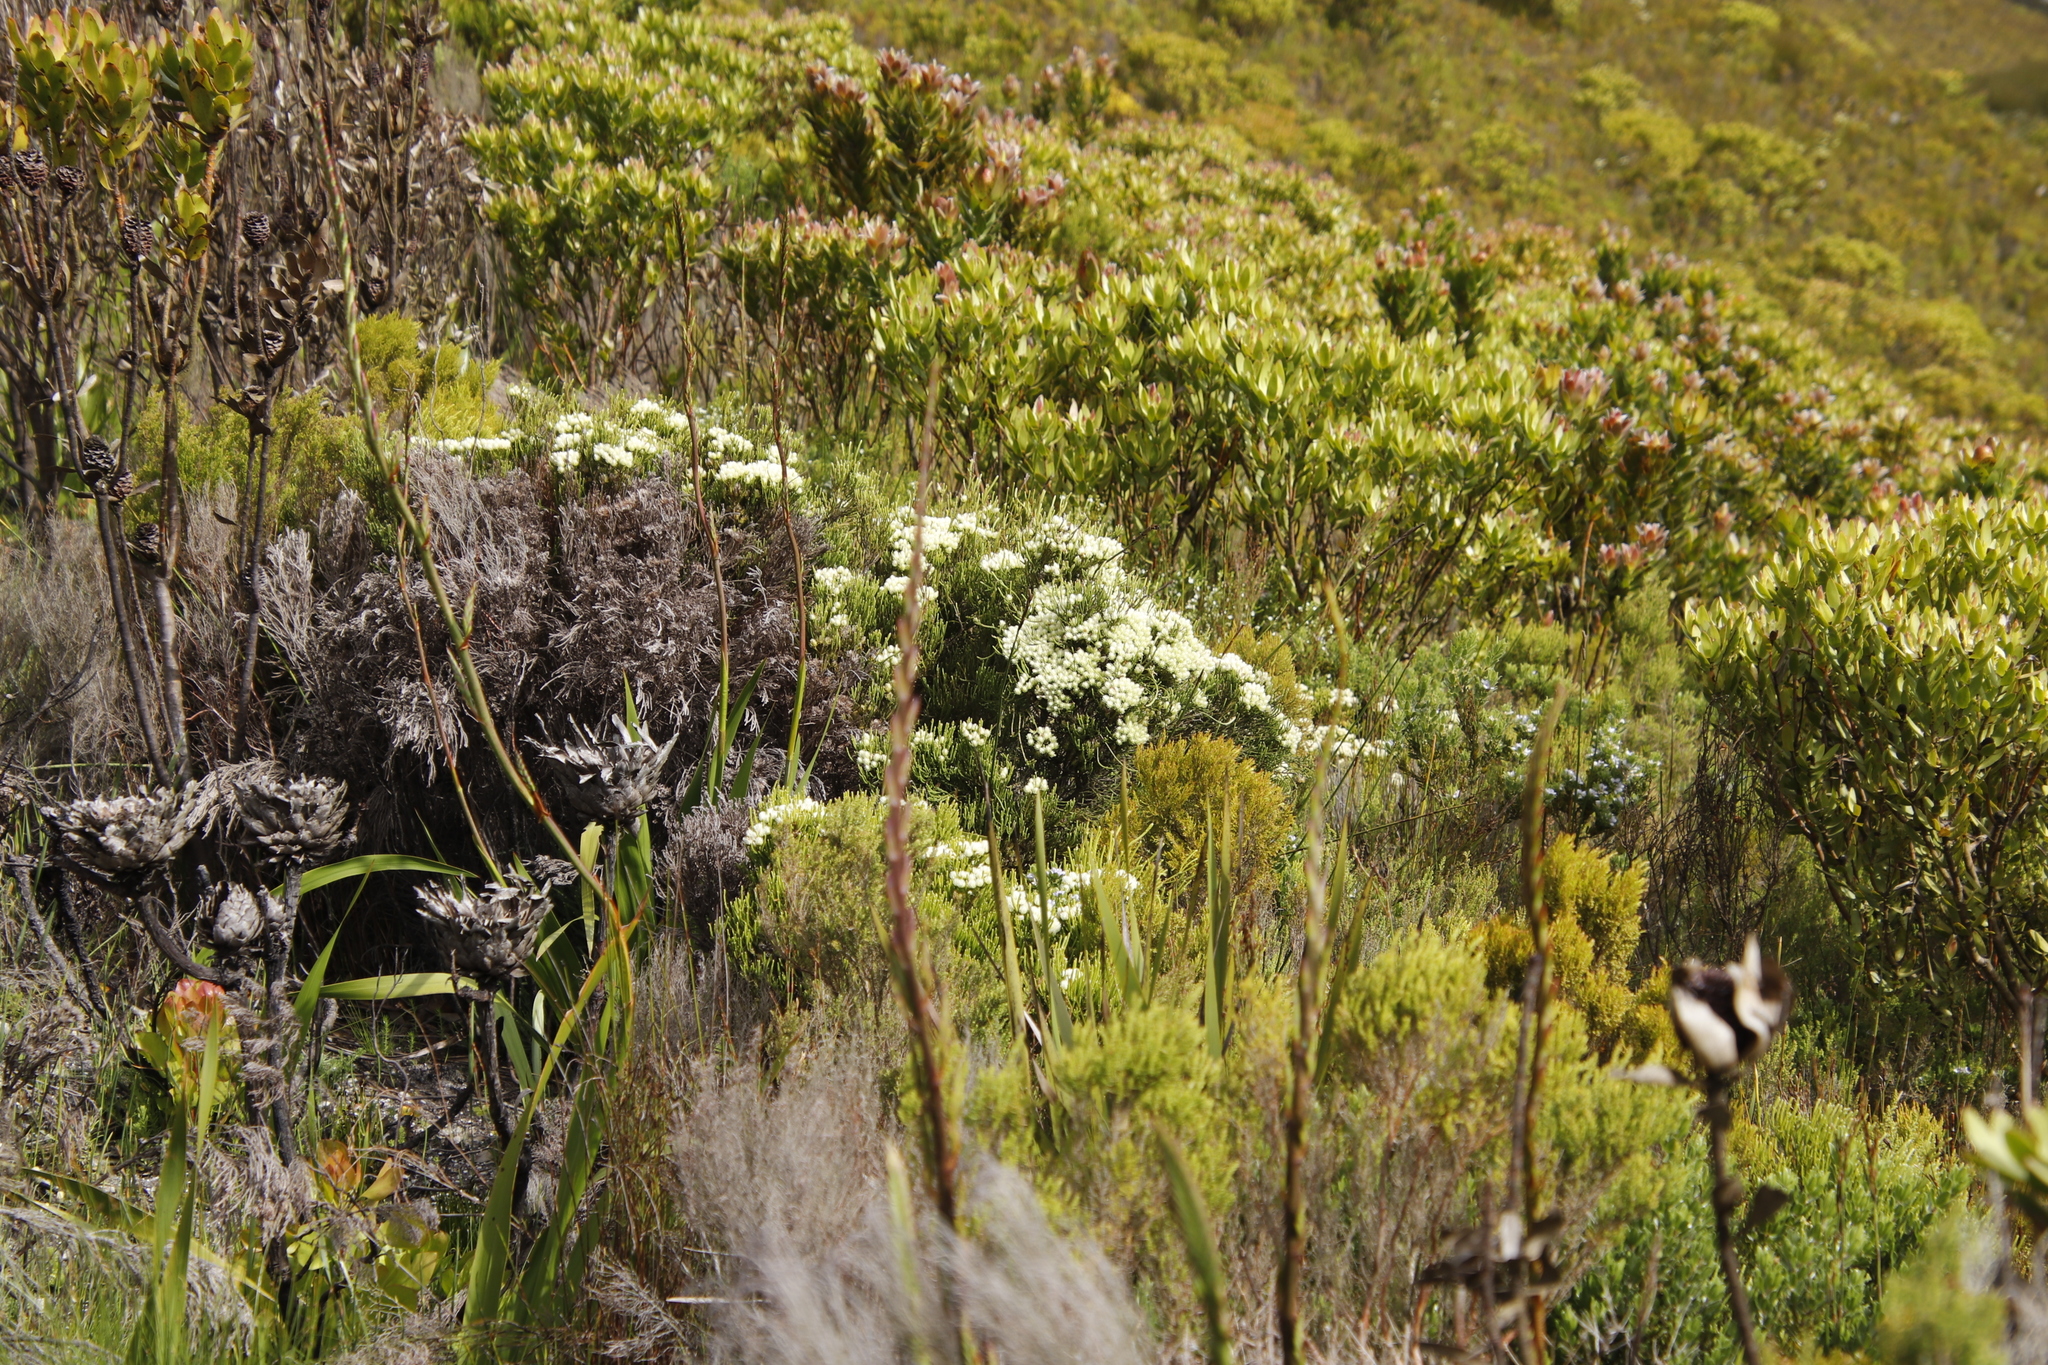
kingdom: Plantae
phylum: Tracheophyta
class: Magnoliopsida
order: Bruniales
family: Bruniaceae
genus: Brunia
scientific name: Brunia paleacea
